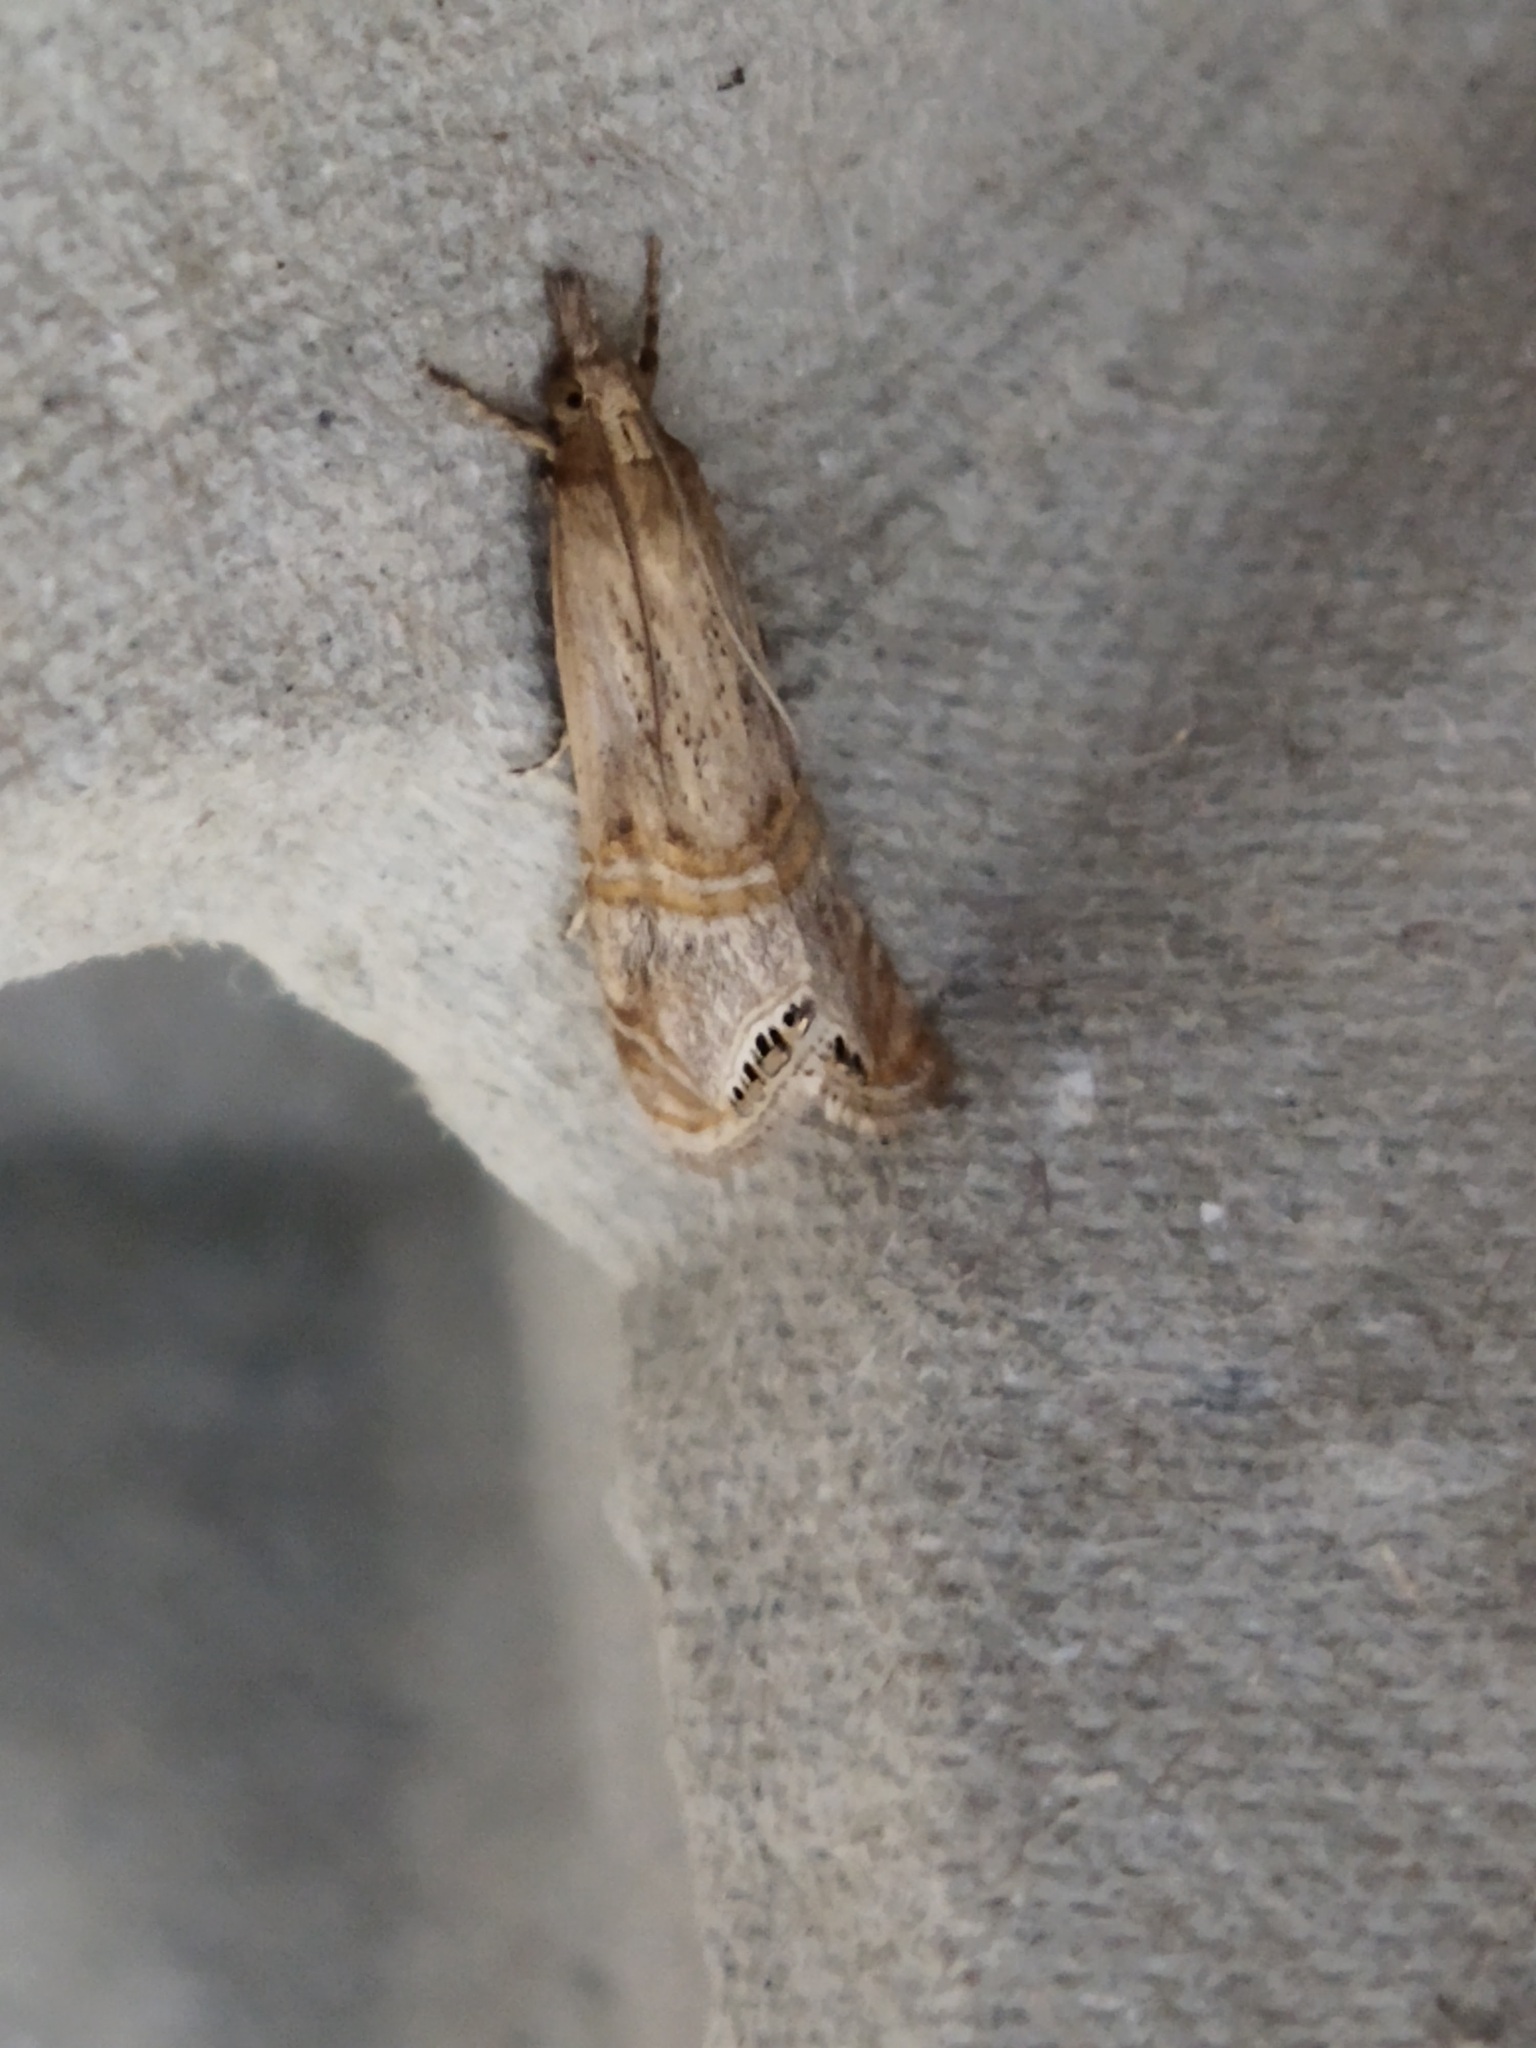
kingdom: Animalia
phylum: Arthropoda
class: Insecta
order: Lepidoptera
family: Crambidae
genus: Euchromius
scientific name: Euchromius ocellea
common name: Necklace veneer moth
